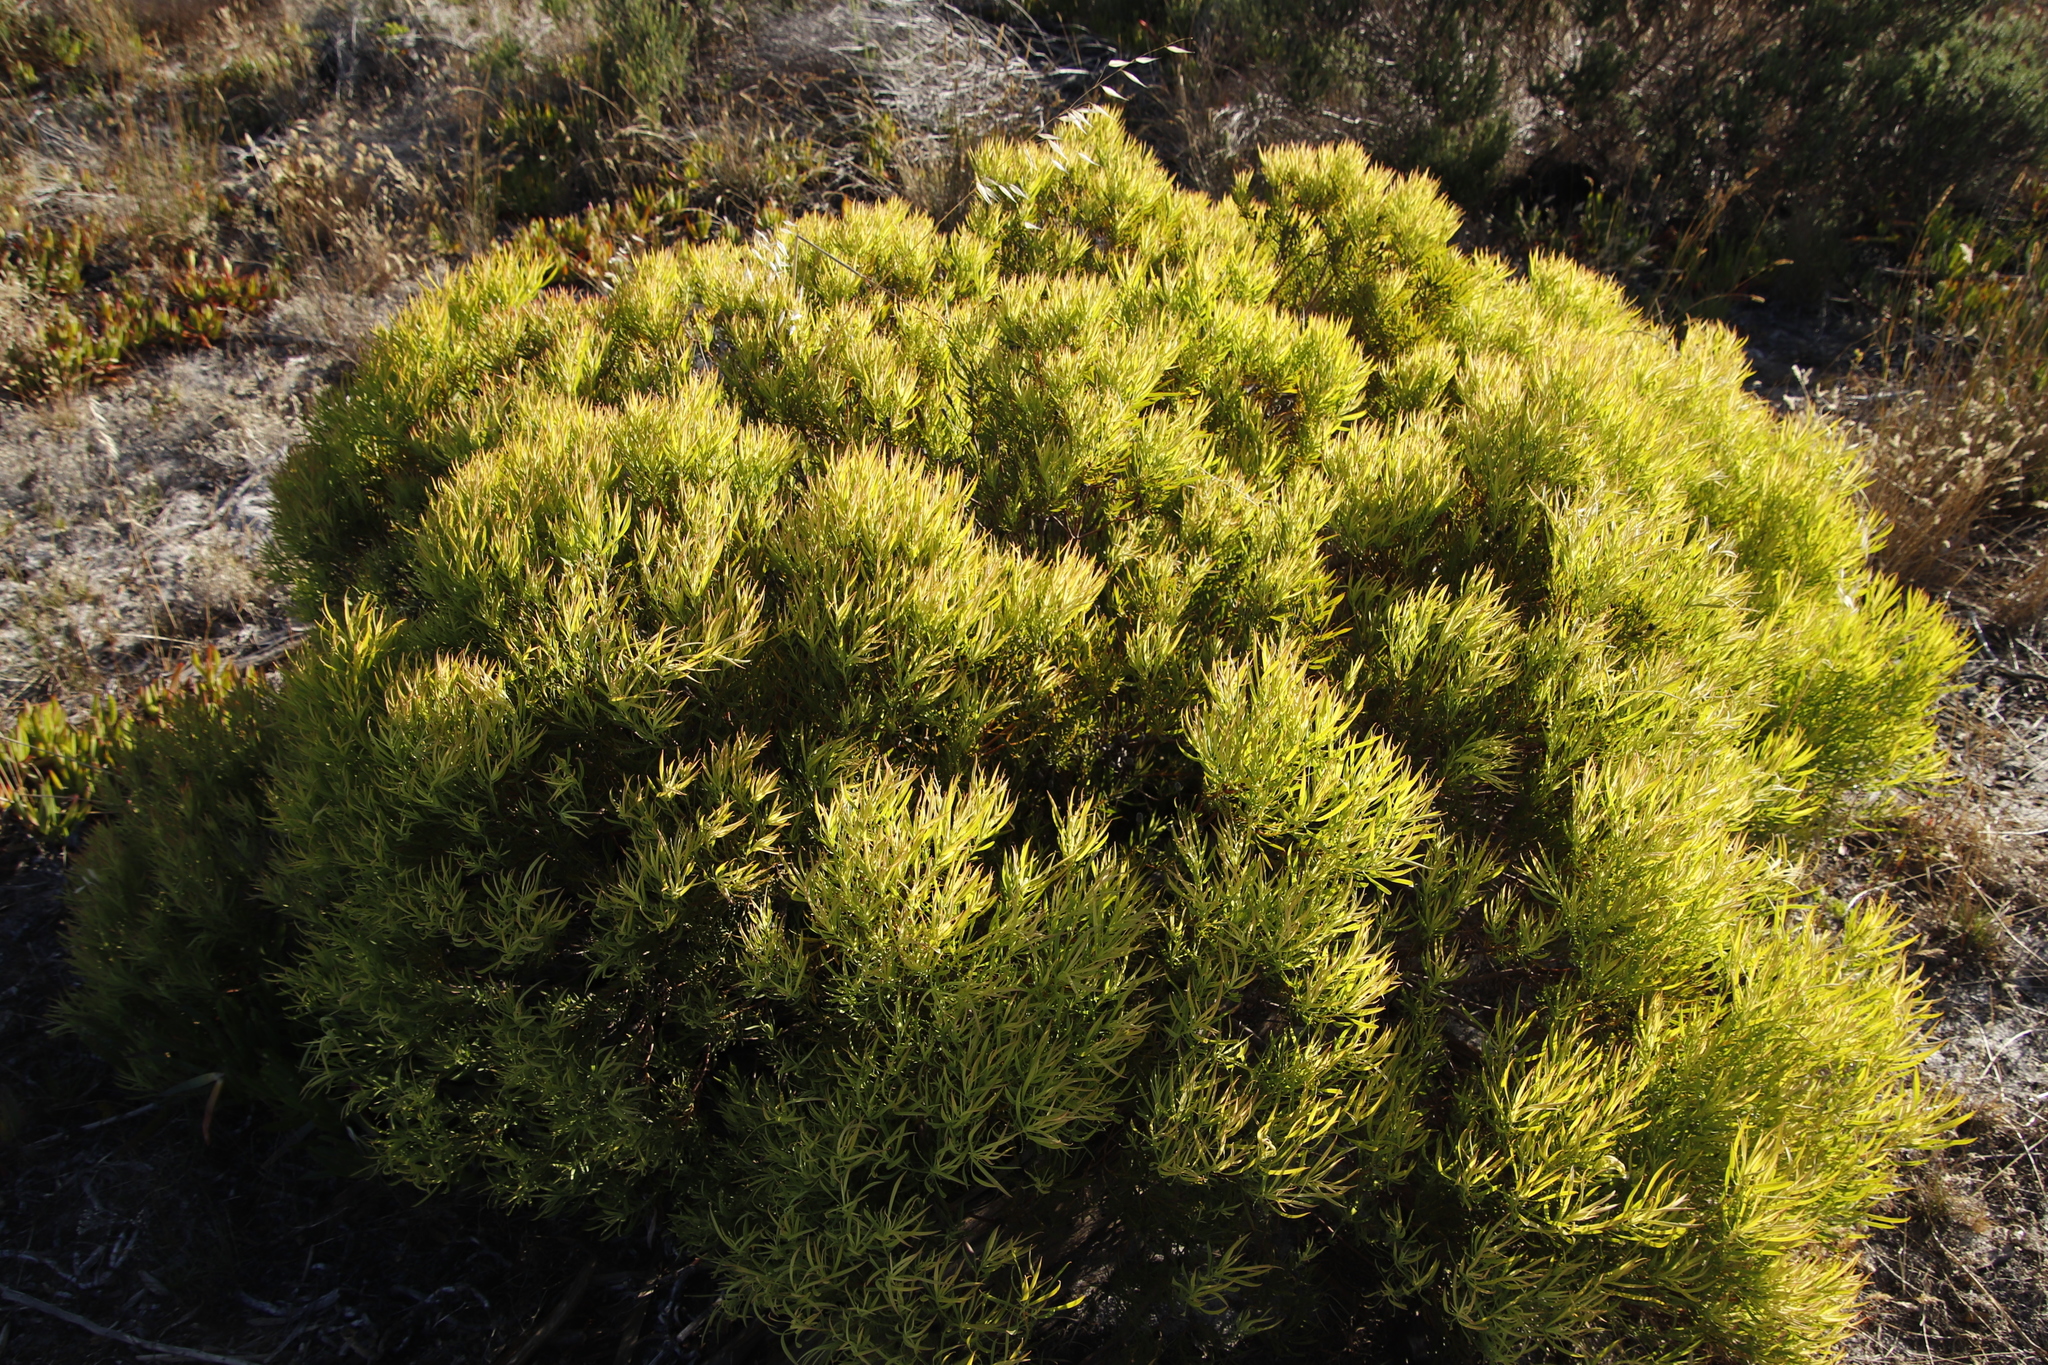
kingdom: Plantae
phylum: Tracheophyta
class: Magnoliopsida
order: Proteales
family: Proteaceae
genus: Leucadendron
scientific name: Leucadendron salignum
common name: Common sunshine conebush
